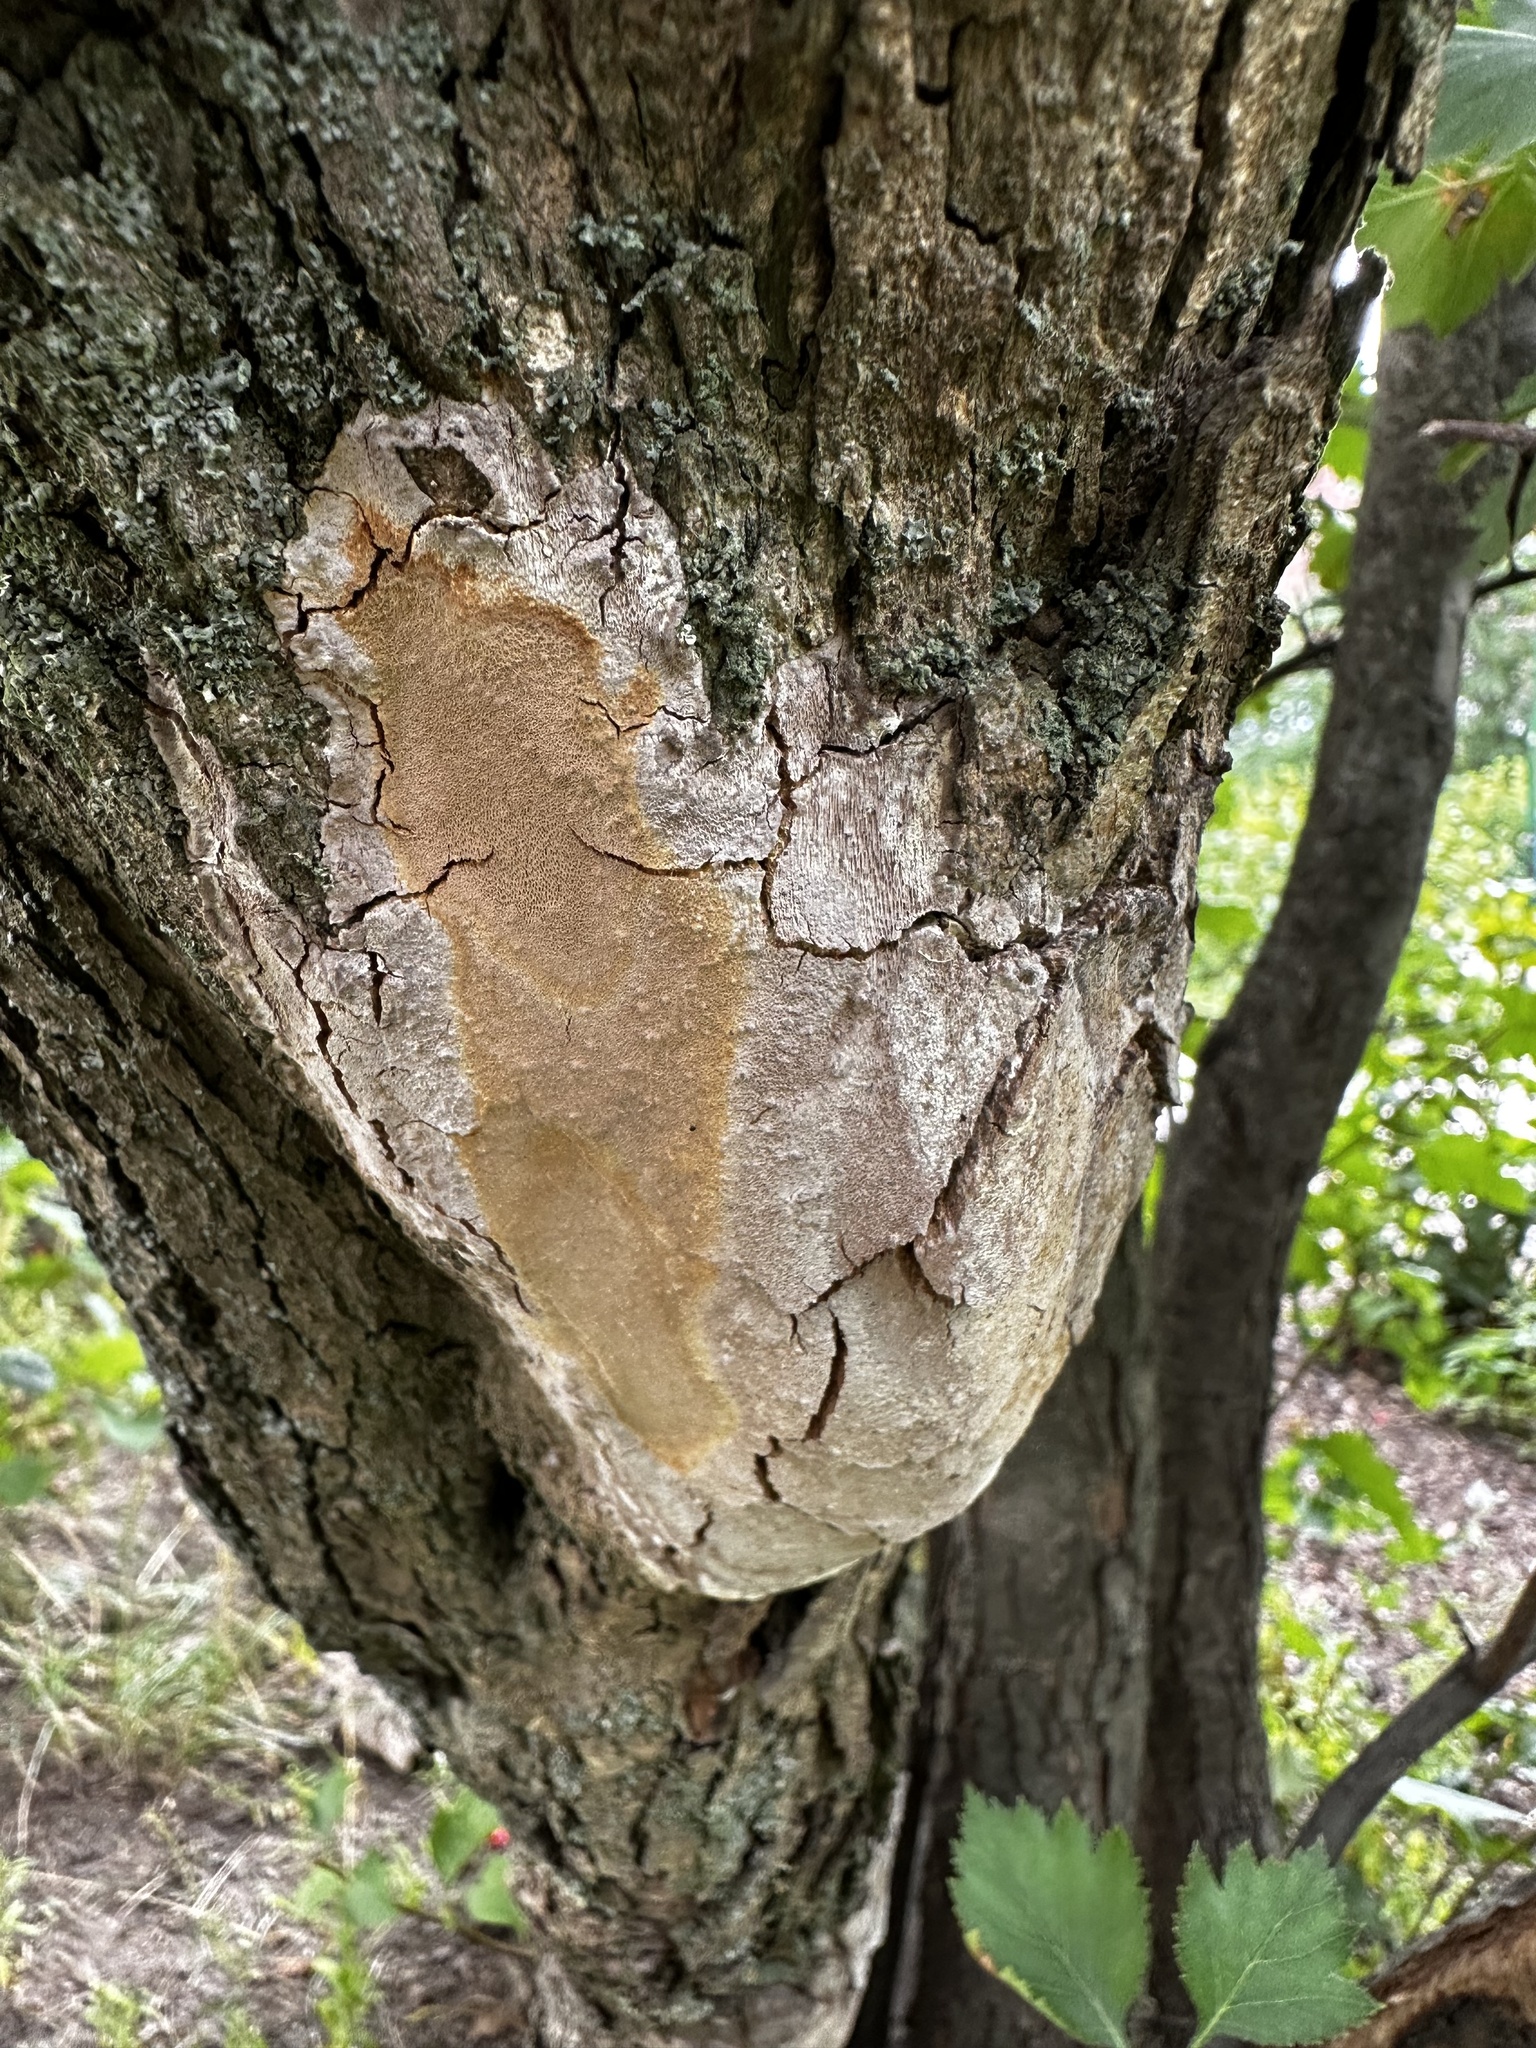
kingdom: Fungi
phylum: Basidiomycota
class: Agaricomycetes
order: Hymenochaetales
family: Hymenochaetaceae
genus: Fomitiporia
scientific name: Fomitiporia punctata
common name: Elbowpatch crust
